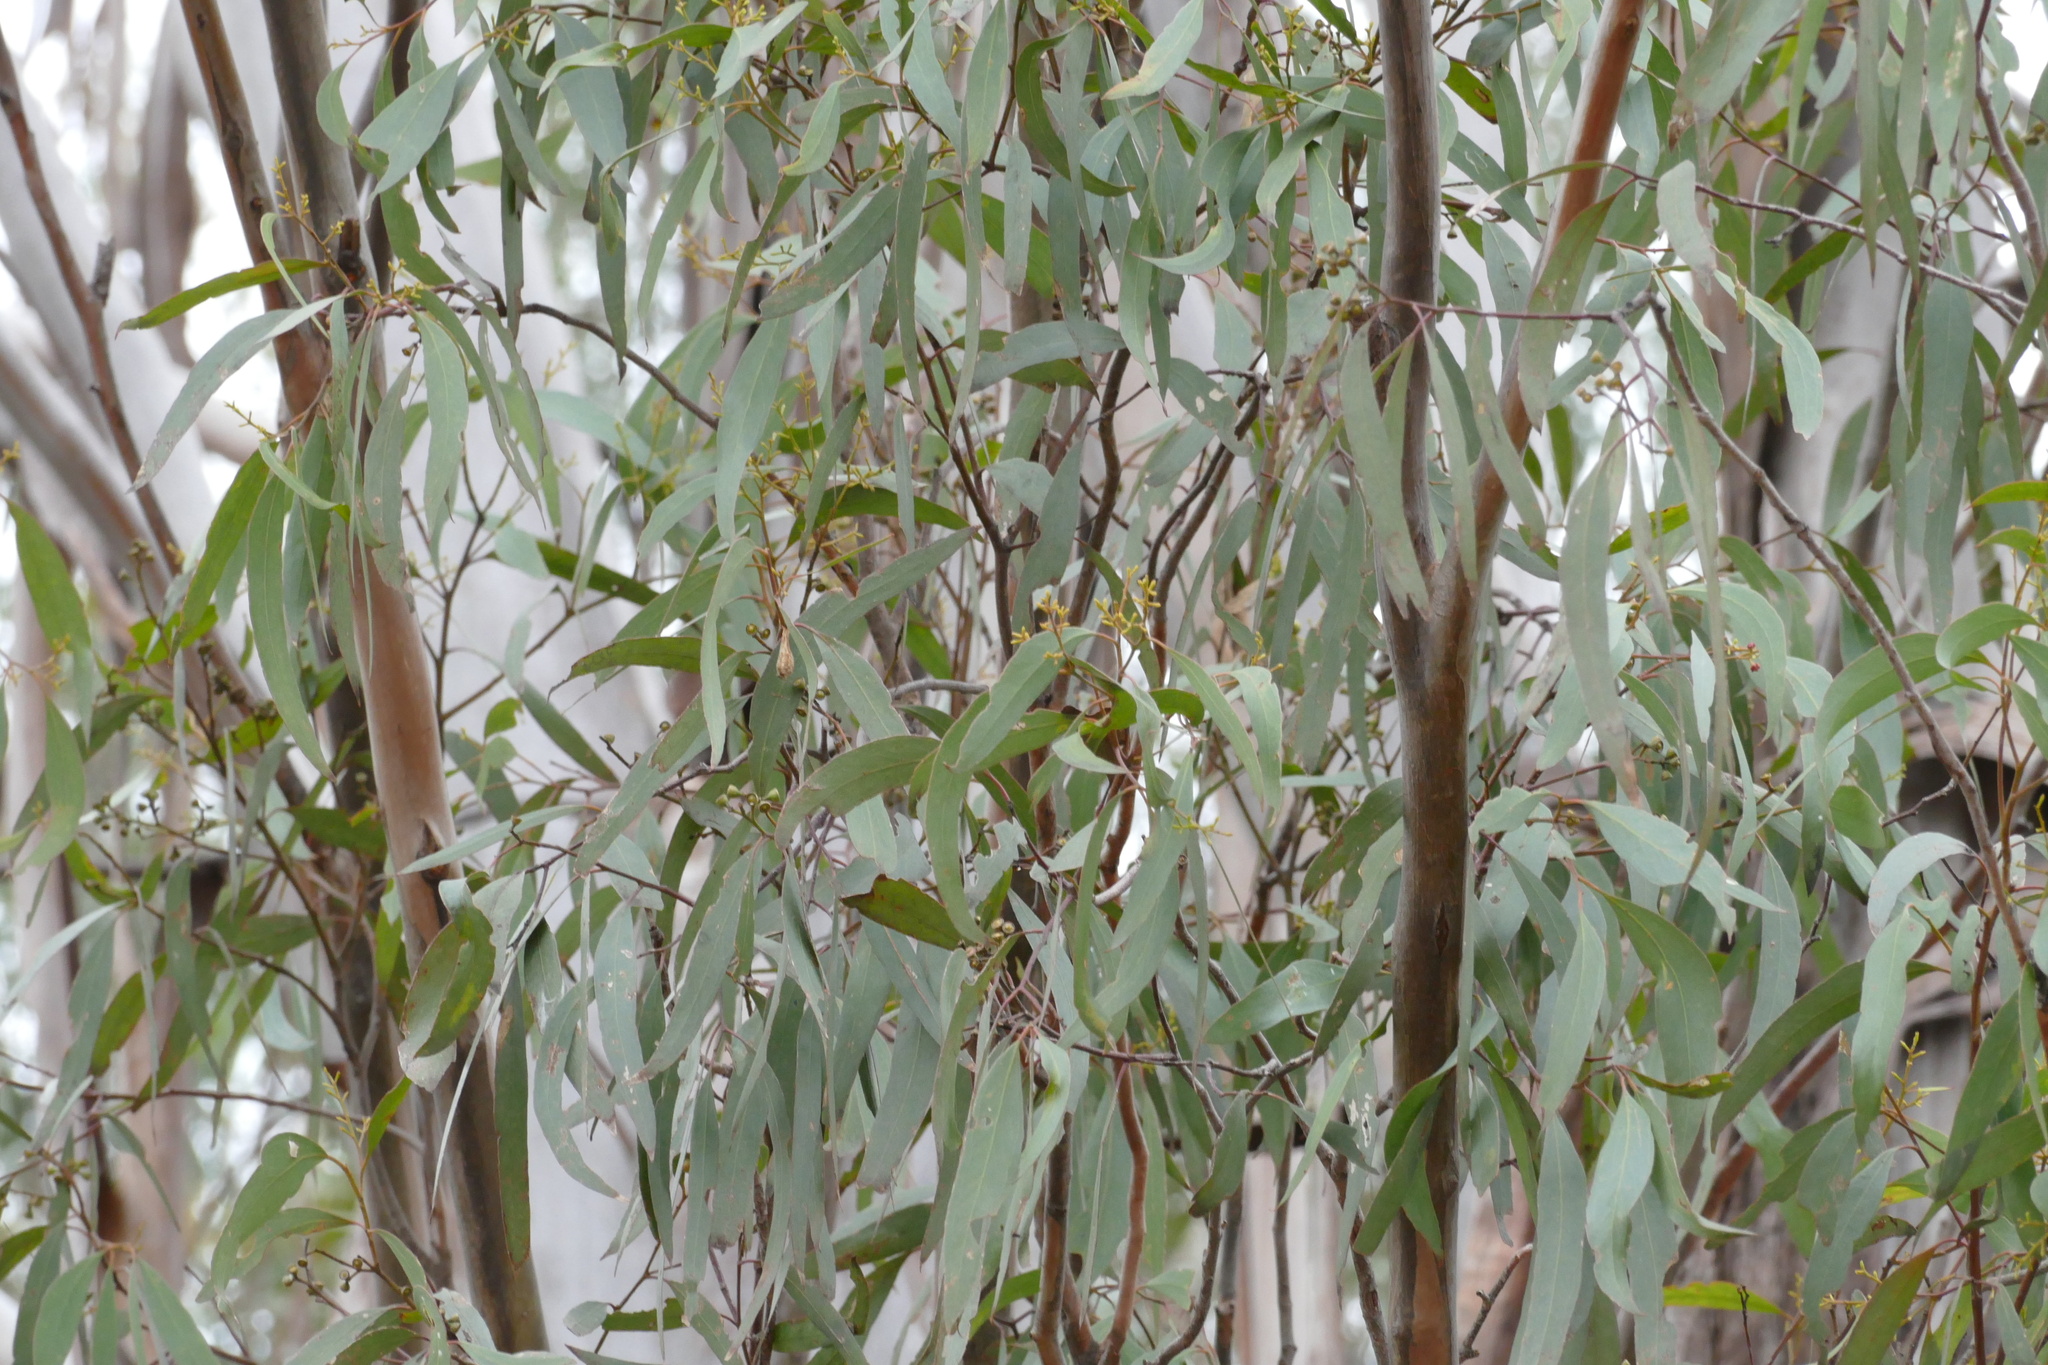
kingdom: Plantae
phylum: Tracheophyta
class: Magnoliopsida
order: Myrtales
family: Myrtaceae
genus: Eucalyptus
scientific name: Eucalyptus woollsiana
